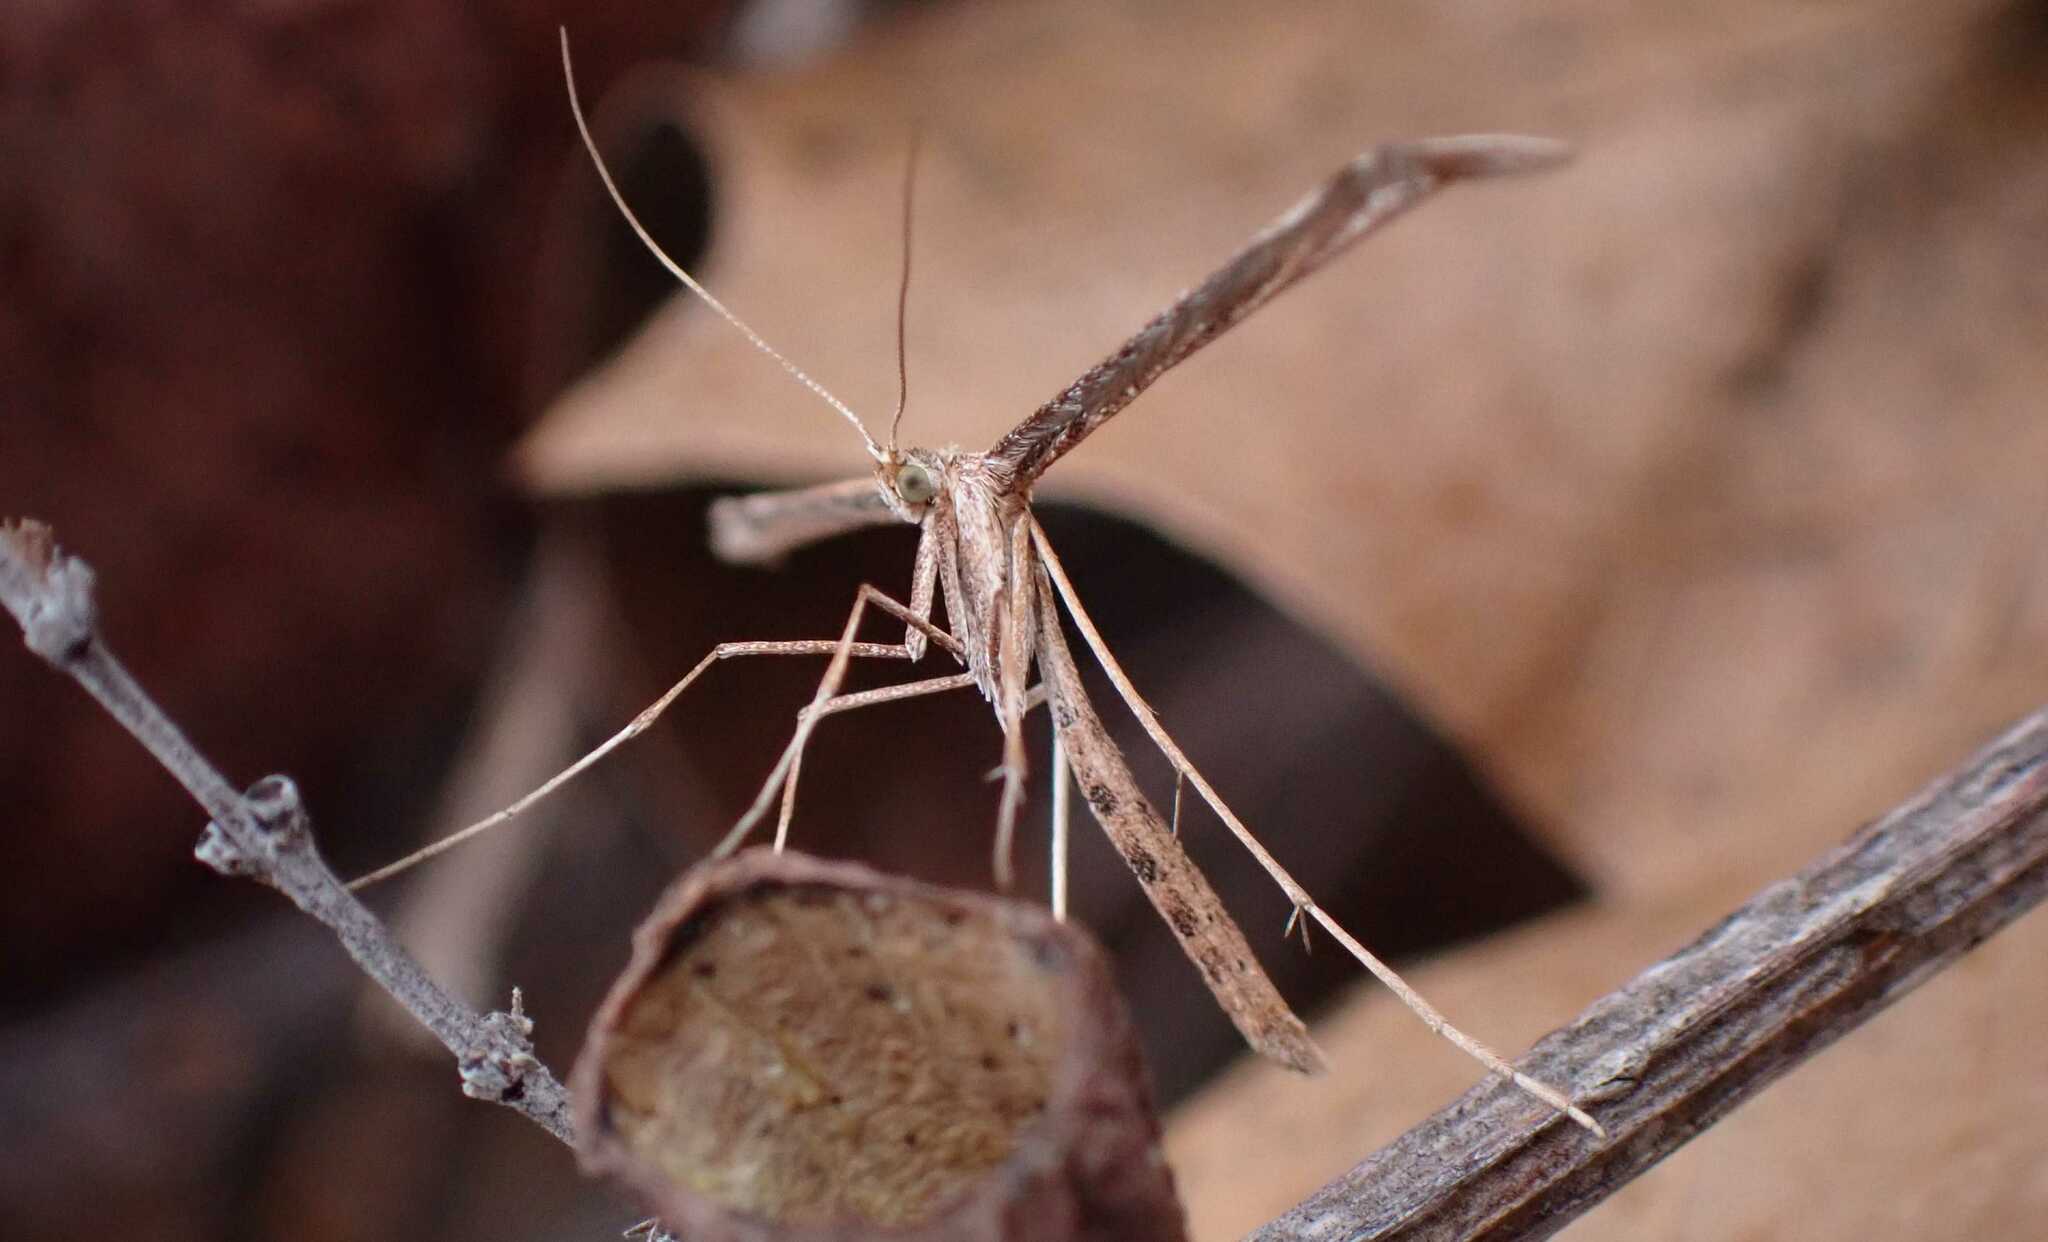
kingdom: Animalia
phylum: Arthropoda
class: Insecta
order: Lepidoptera
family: Pterophoridae
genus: Emmelina
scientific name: Emmelina monodactyla
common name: Common plume
